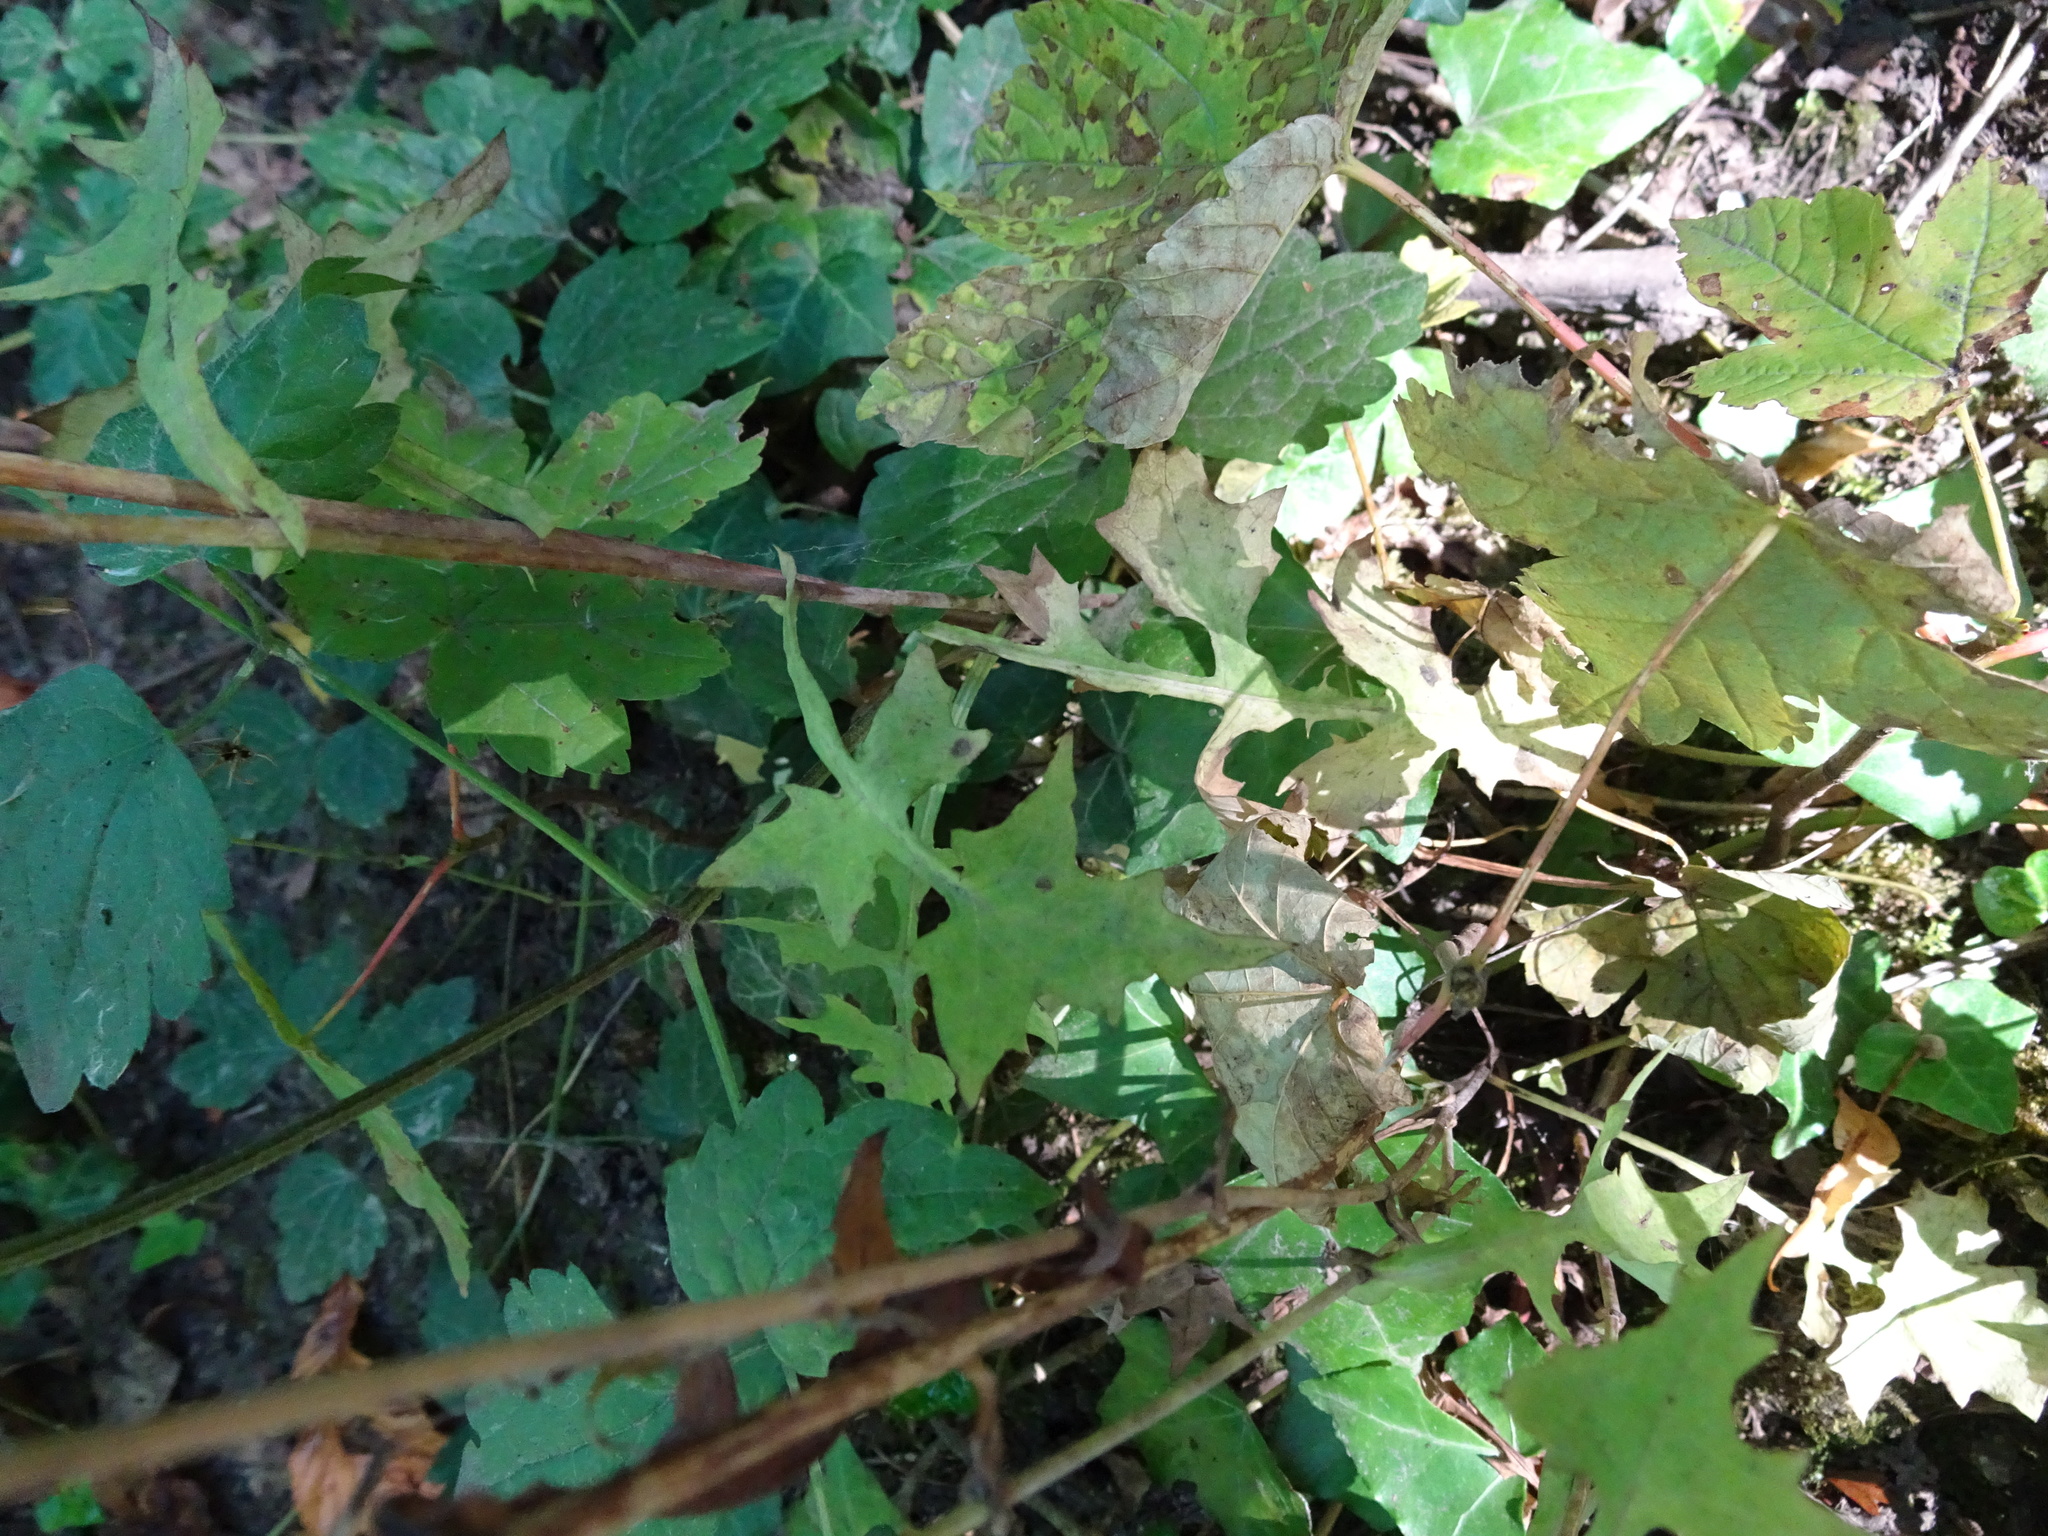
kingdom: Plantae
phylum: Tracheophyta
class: Magnoliopsida
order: Asterales
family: Asteraceae
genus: Mycelis
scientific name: Mycelis muralis
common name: Wall lettuce
